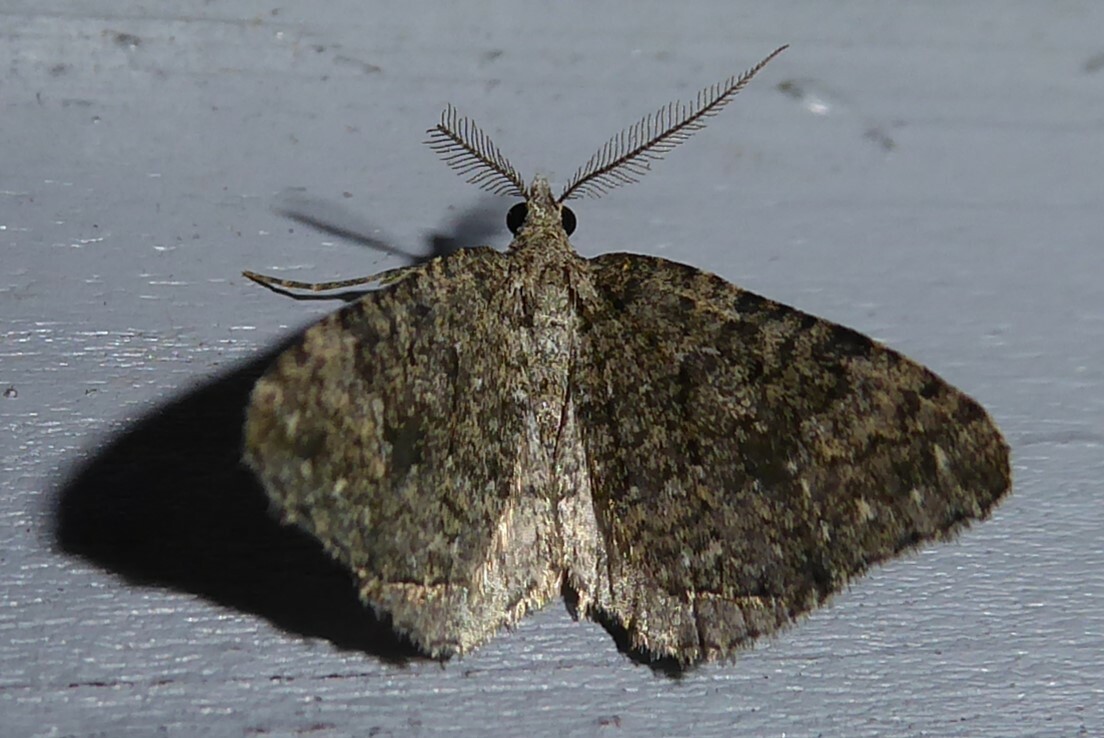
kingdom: Animalia
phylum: Arthropoda
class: Insecta
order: Lepidoptera
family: Geometridae
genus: Helastia
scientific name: Helastia corcularia
